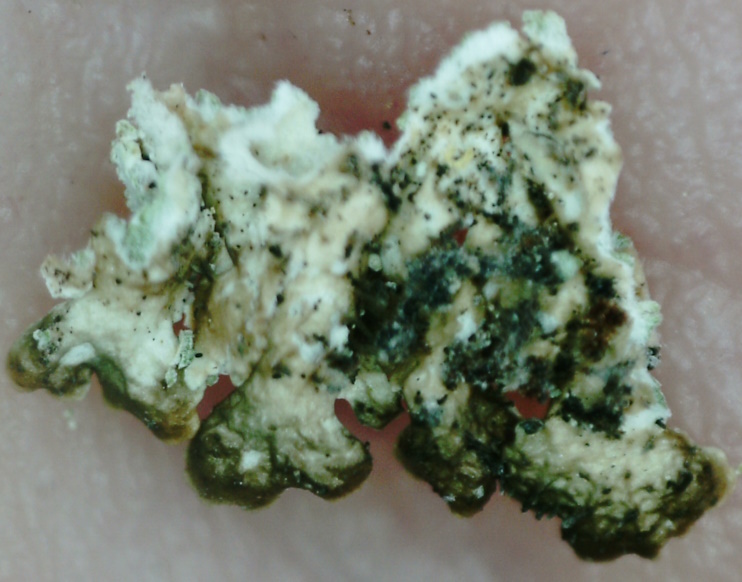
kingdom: Fungi
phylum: Ascomycota
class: Lecanoromycetes
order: Lecanorales
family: Parmeliaceae
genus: Imshaugia
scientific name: Imshaugia aleurites
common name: Salted starburst lichen
